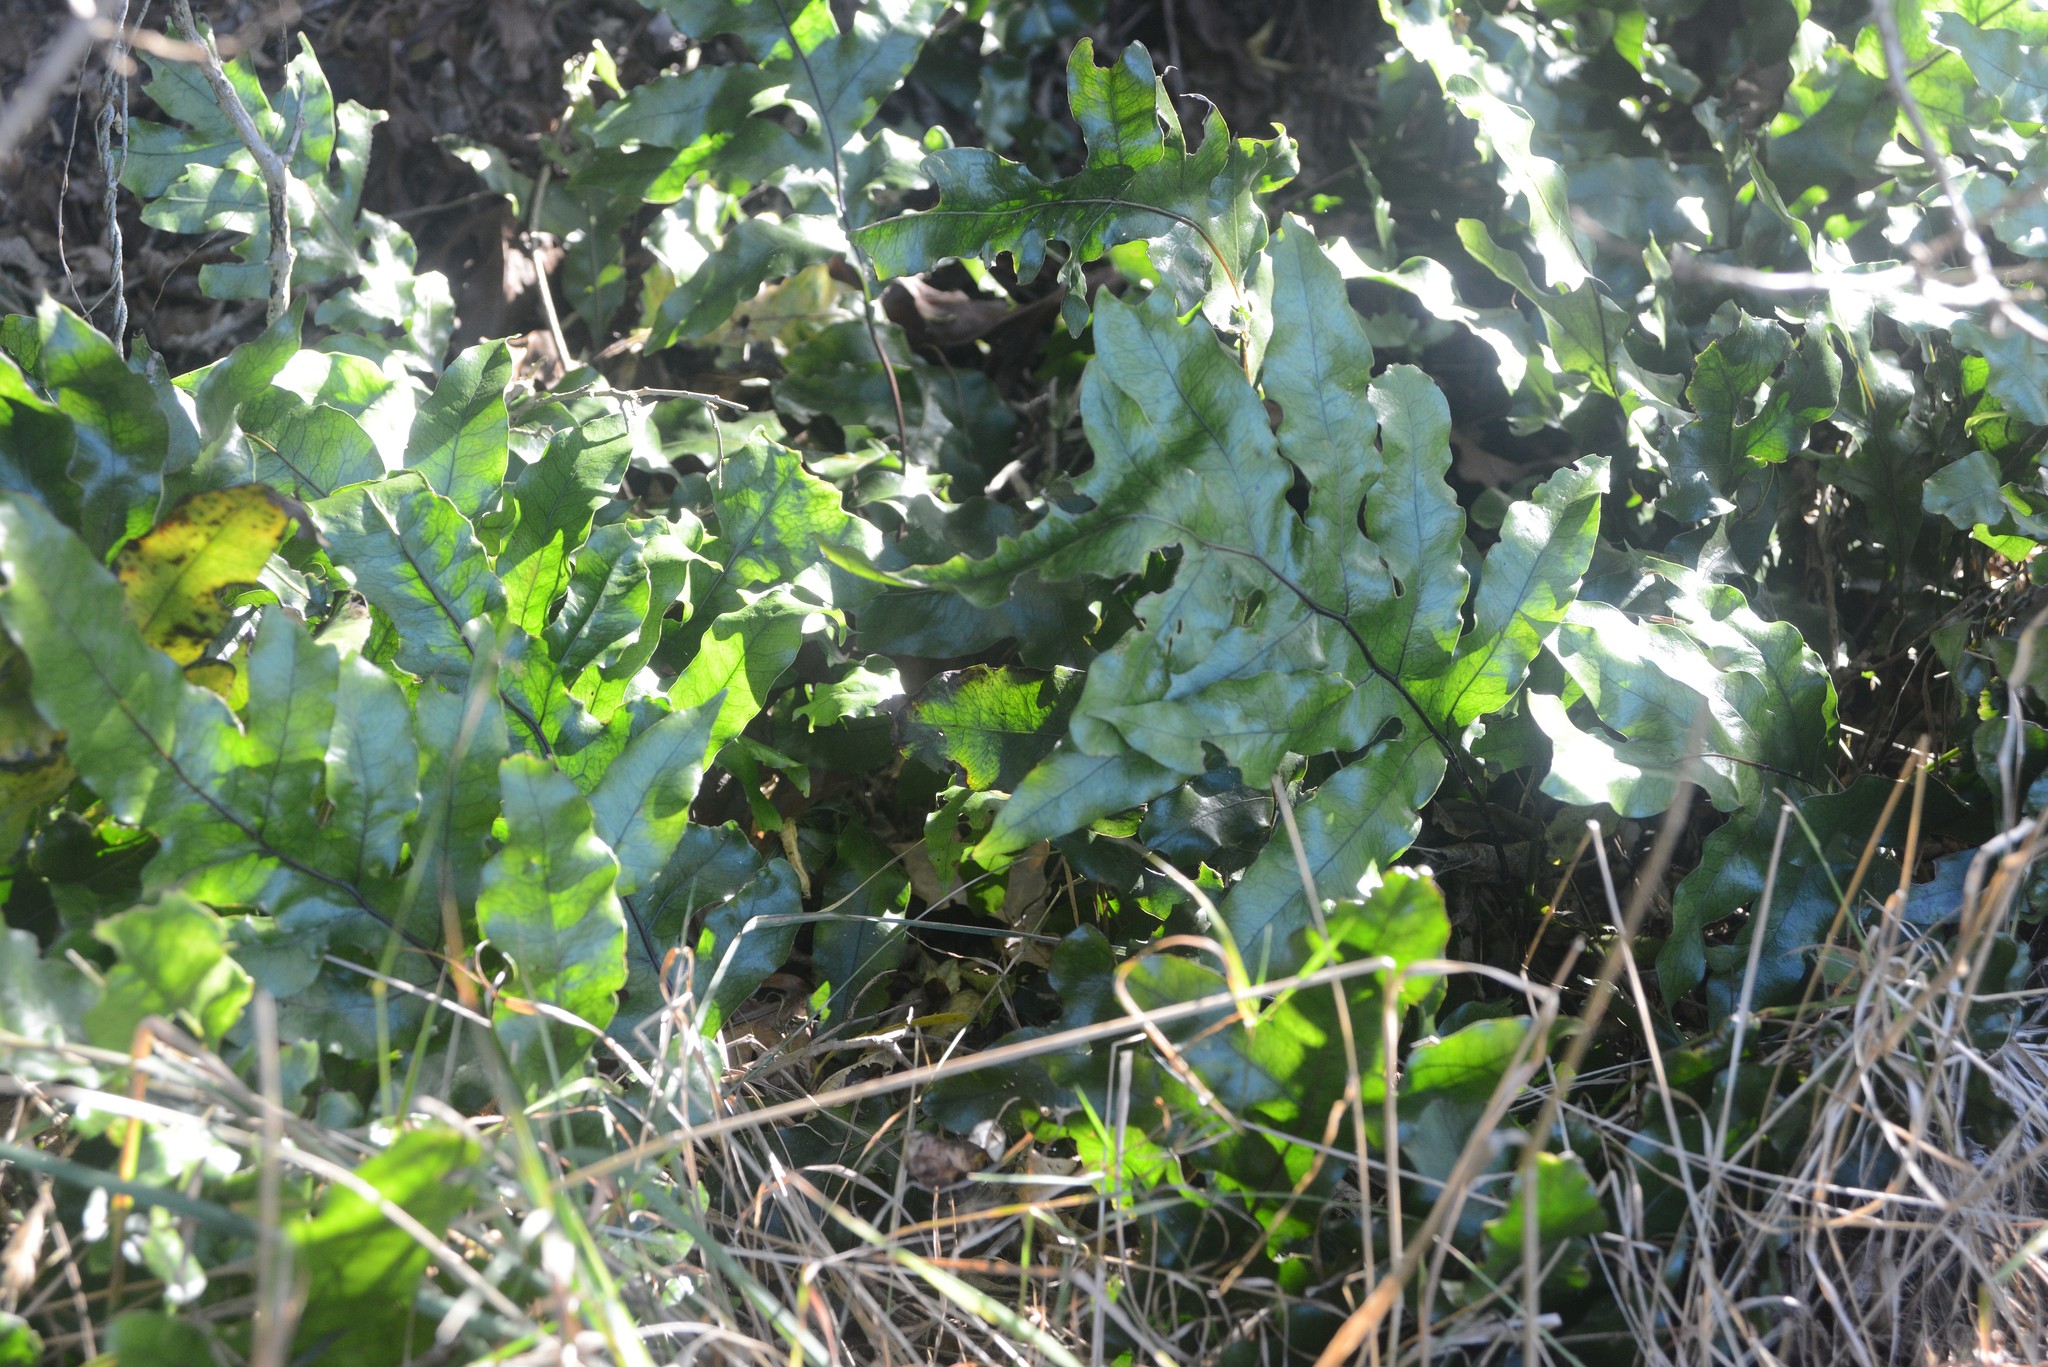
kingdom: Plantae
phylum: Tracheophyta
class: Polypodiopsida
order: Polypodiales
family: Polypodiaceae
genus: Lecanopteris
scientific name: Lecanopteris pustulata
